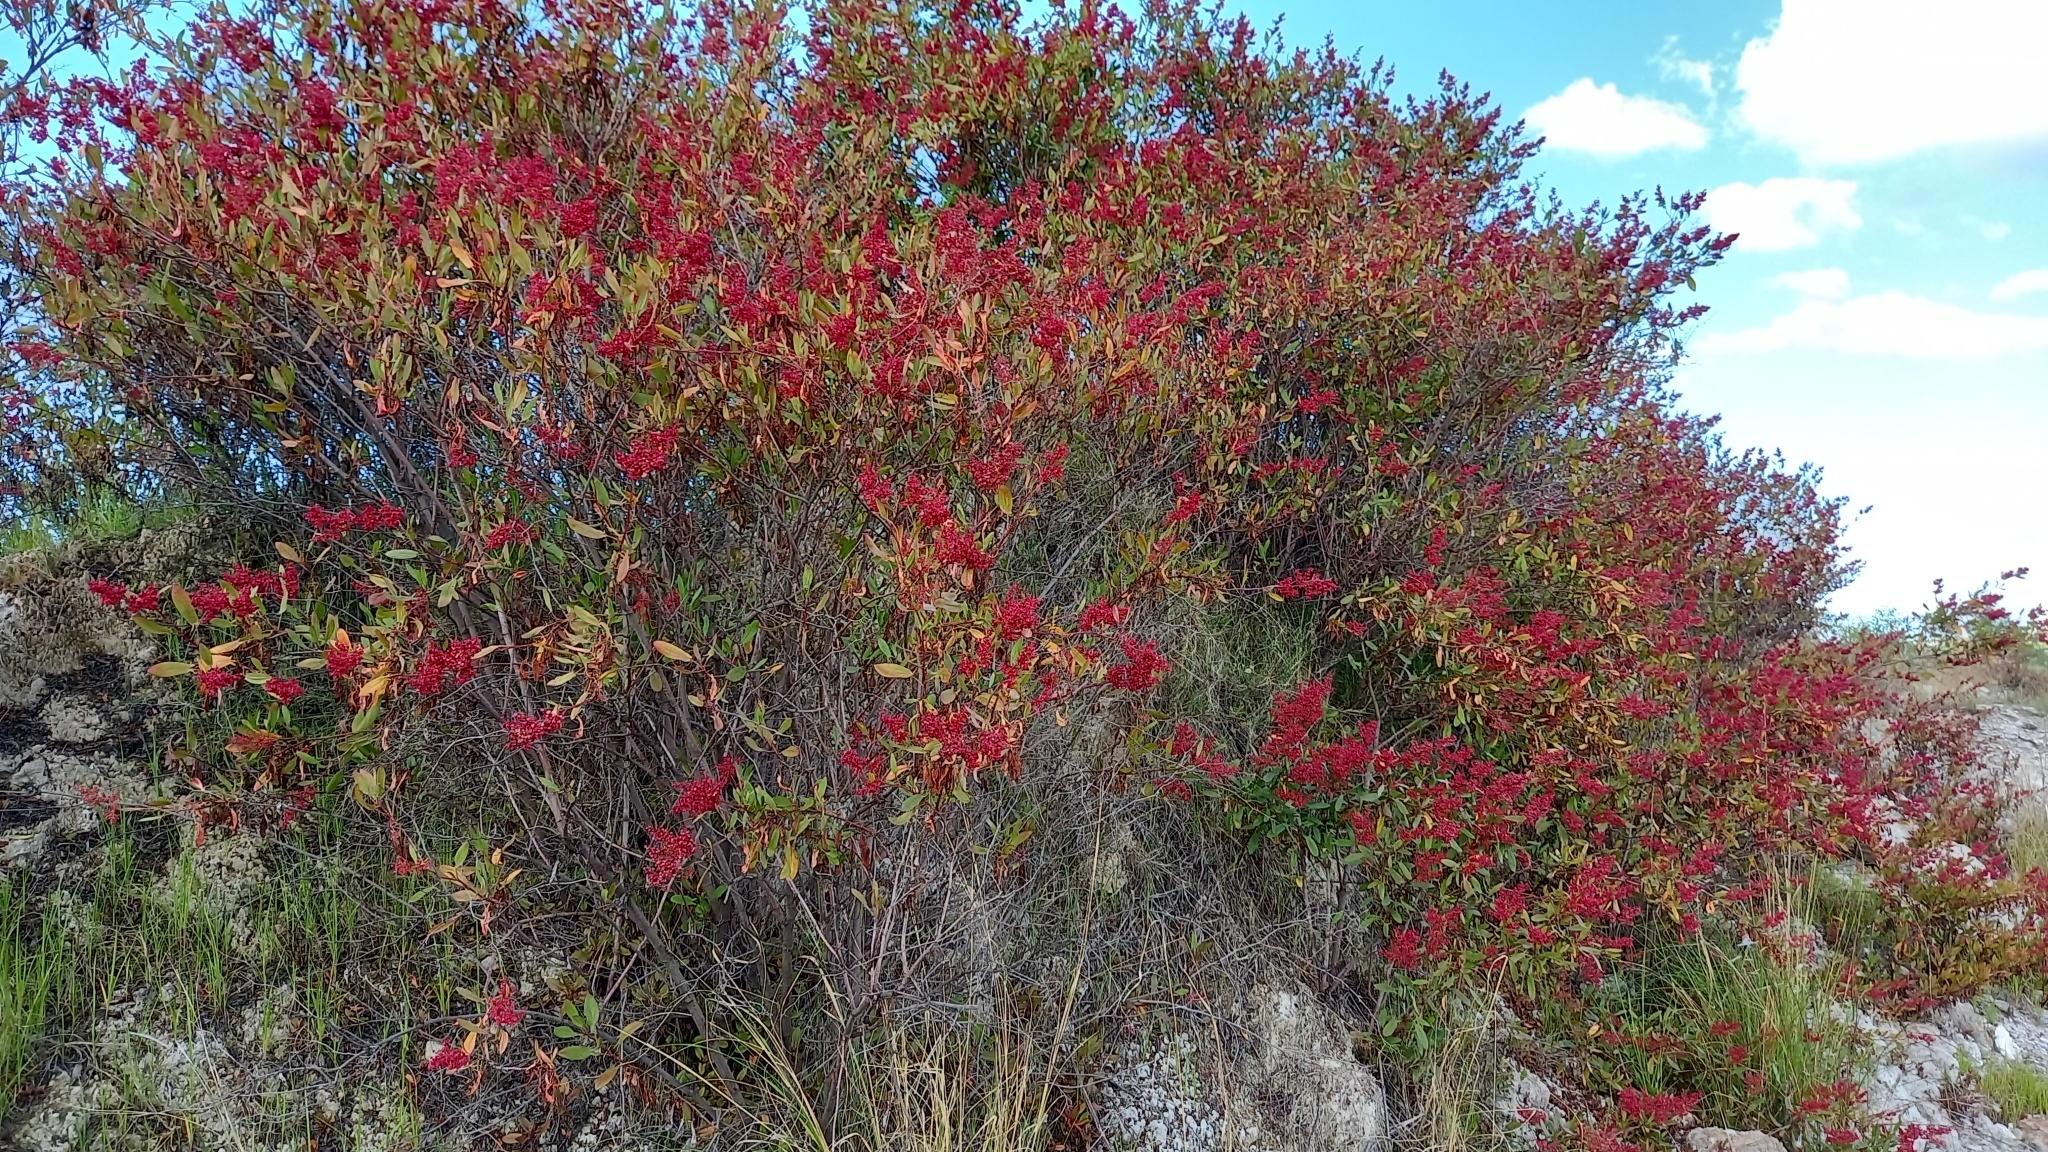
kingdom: Plantae
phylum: Tracheophyta
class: Magnoliopsida
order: Caryophyllales
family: Polygonaceae
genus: Rumex
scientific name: Rumex usambarensis
